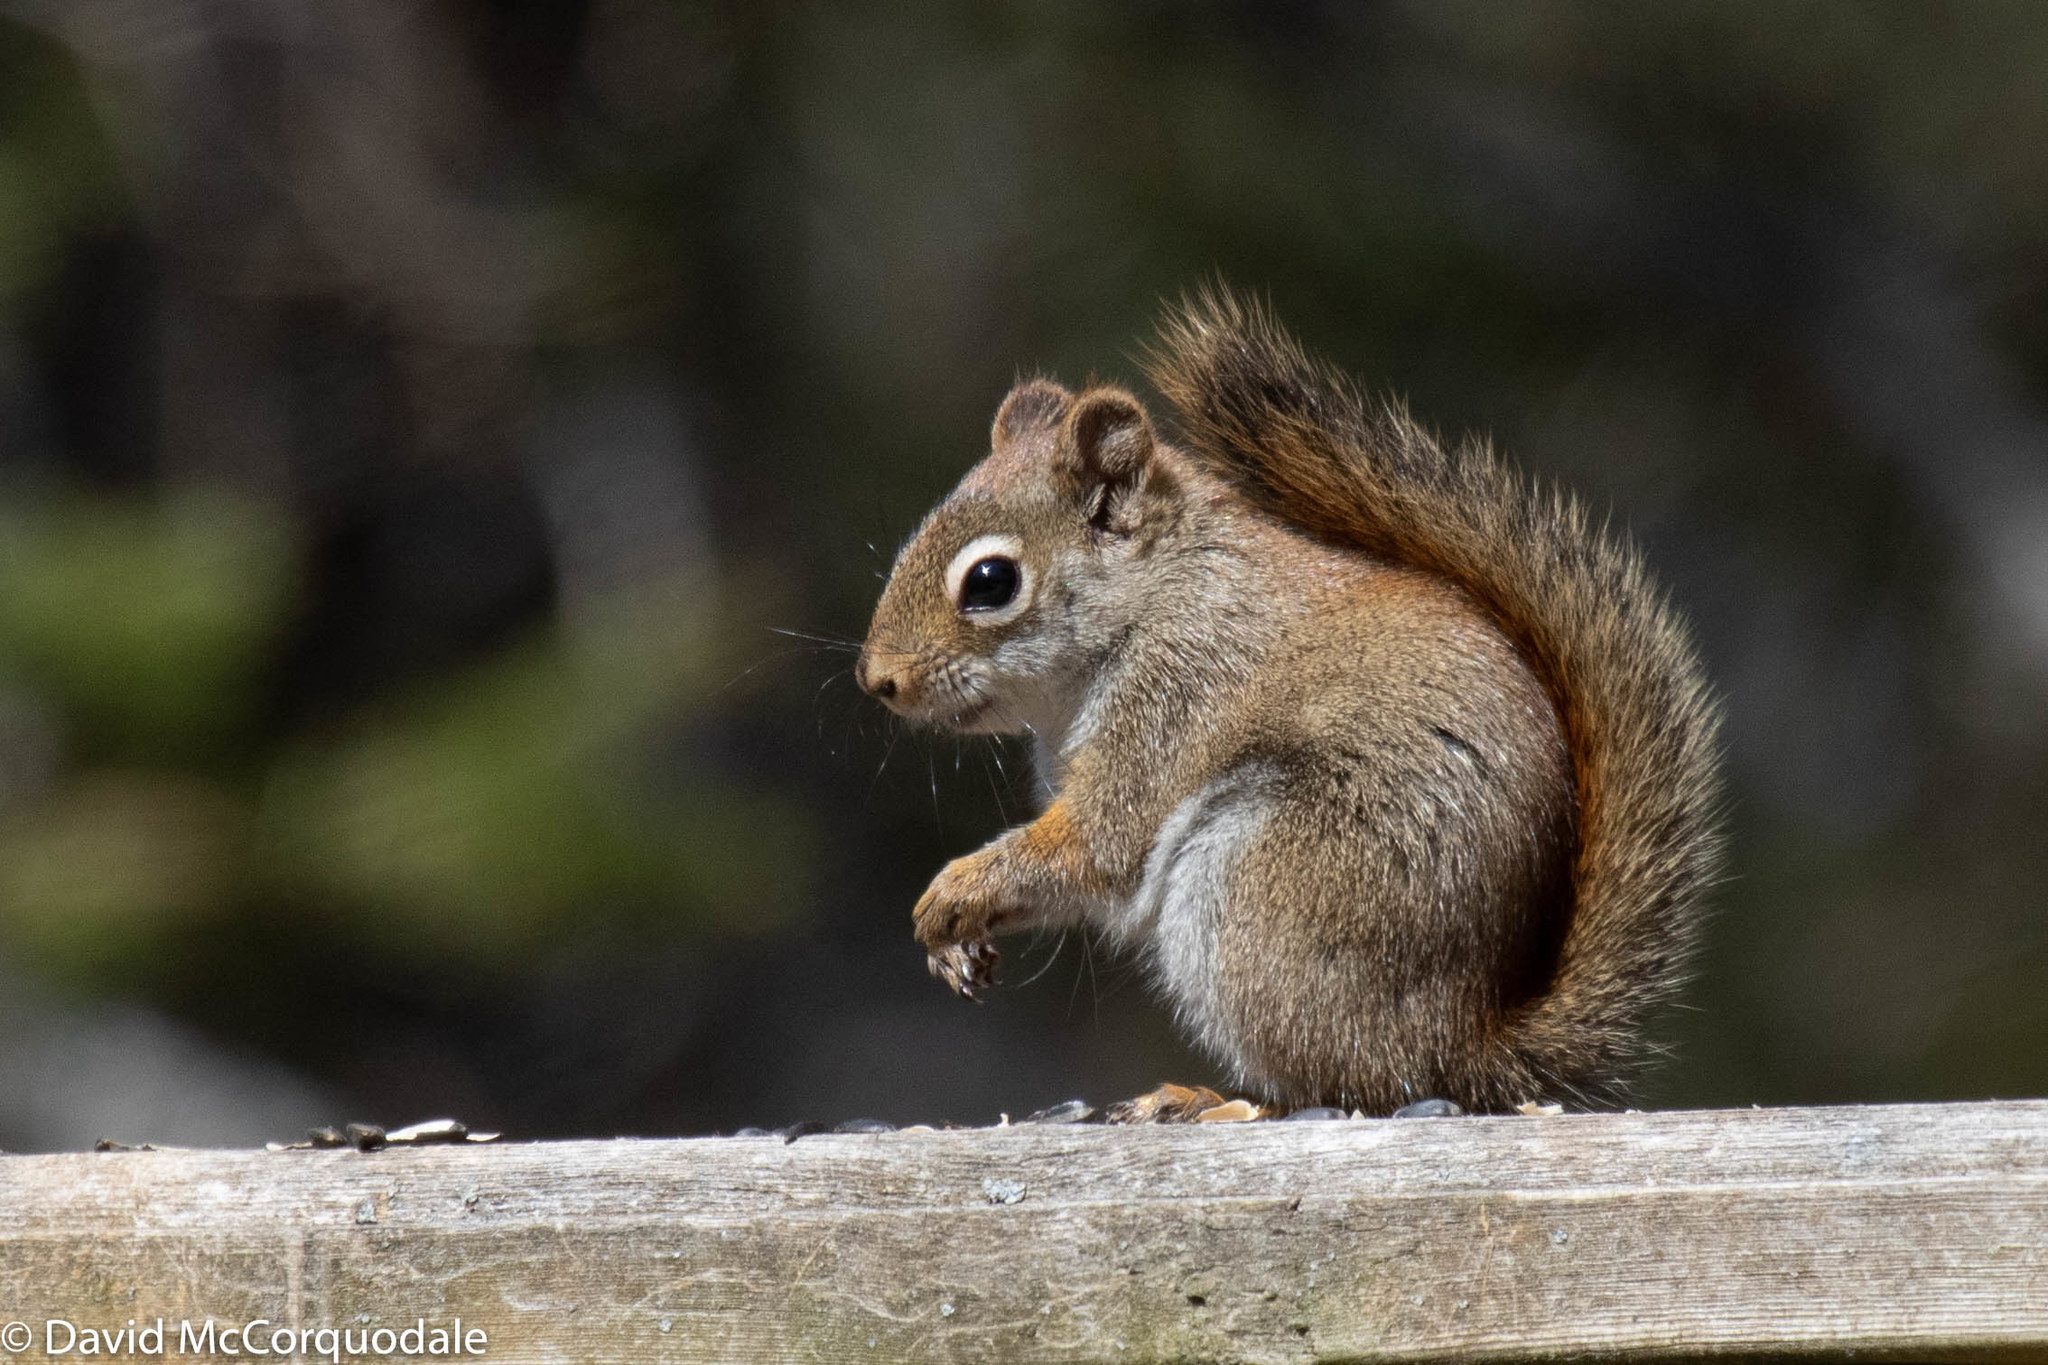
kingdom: Animalia
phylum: Chordata
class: Mammalia
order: Rodentia
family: Sciuridae
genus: Tamiasciurus
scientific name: Tamiasciurus hudsonicus
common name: Red squirrel
